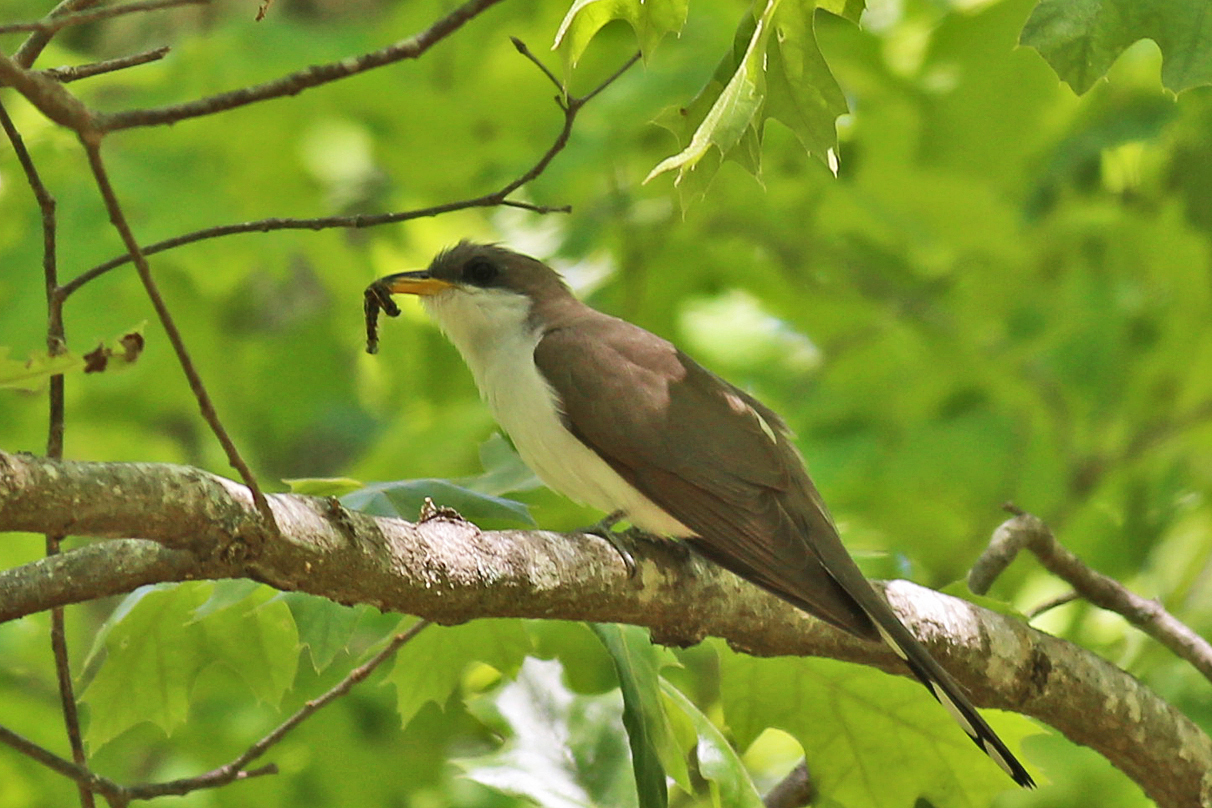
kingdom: Animalia
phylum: Chordata
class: Aves
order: Cuculiformes
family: Cuculidae
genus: Coccyzus
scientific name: Coccyzus americanus
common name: Yellow-billed cuckoo
